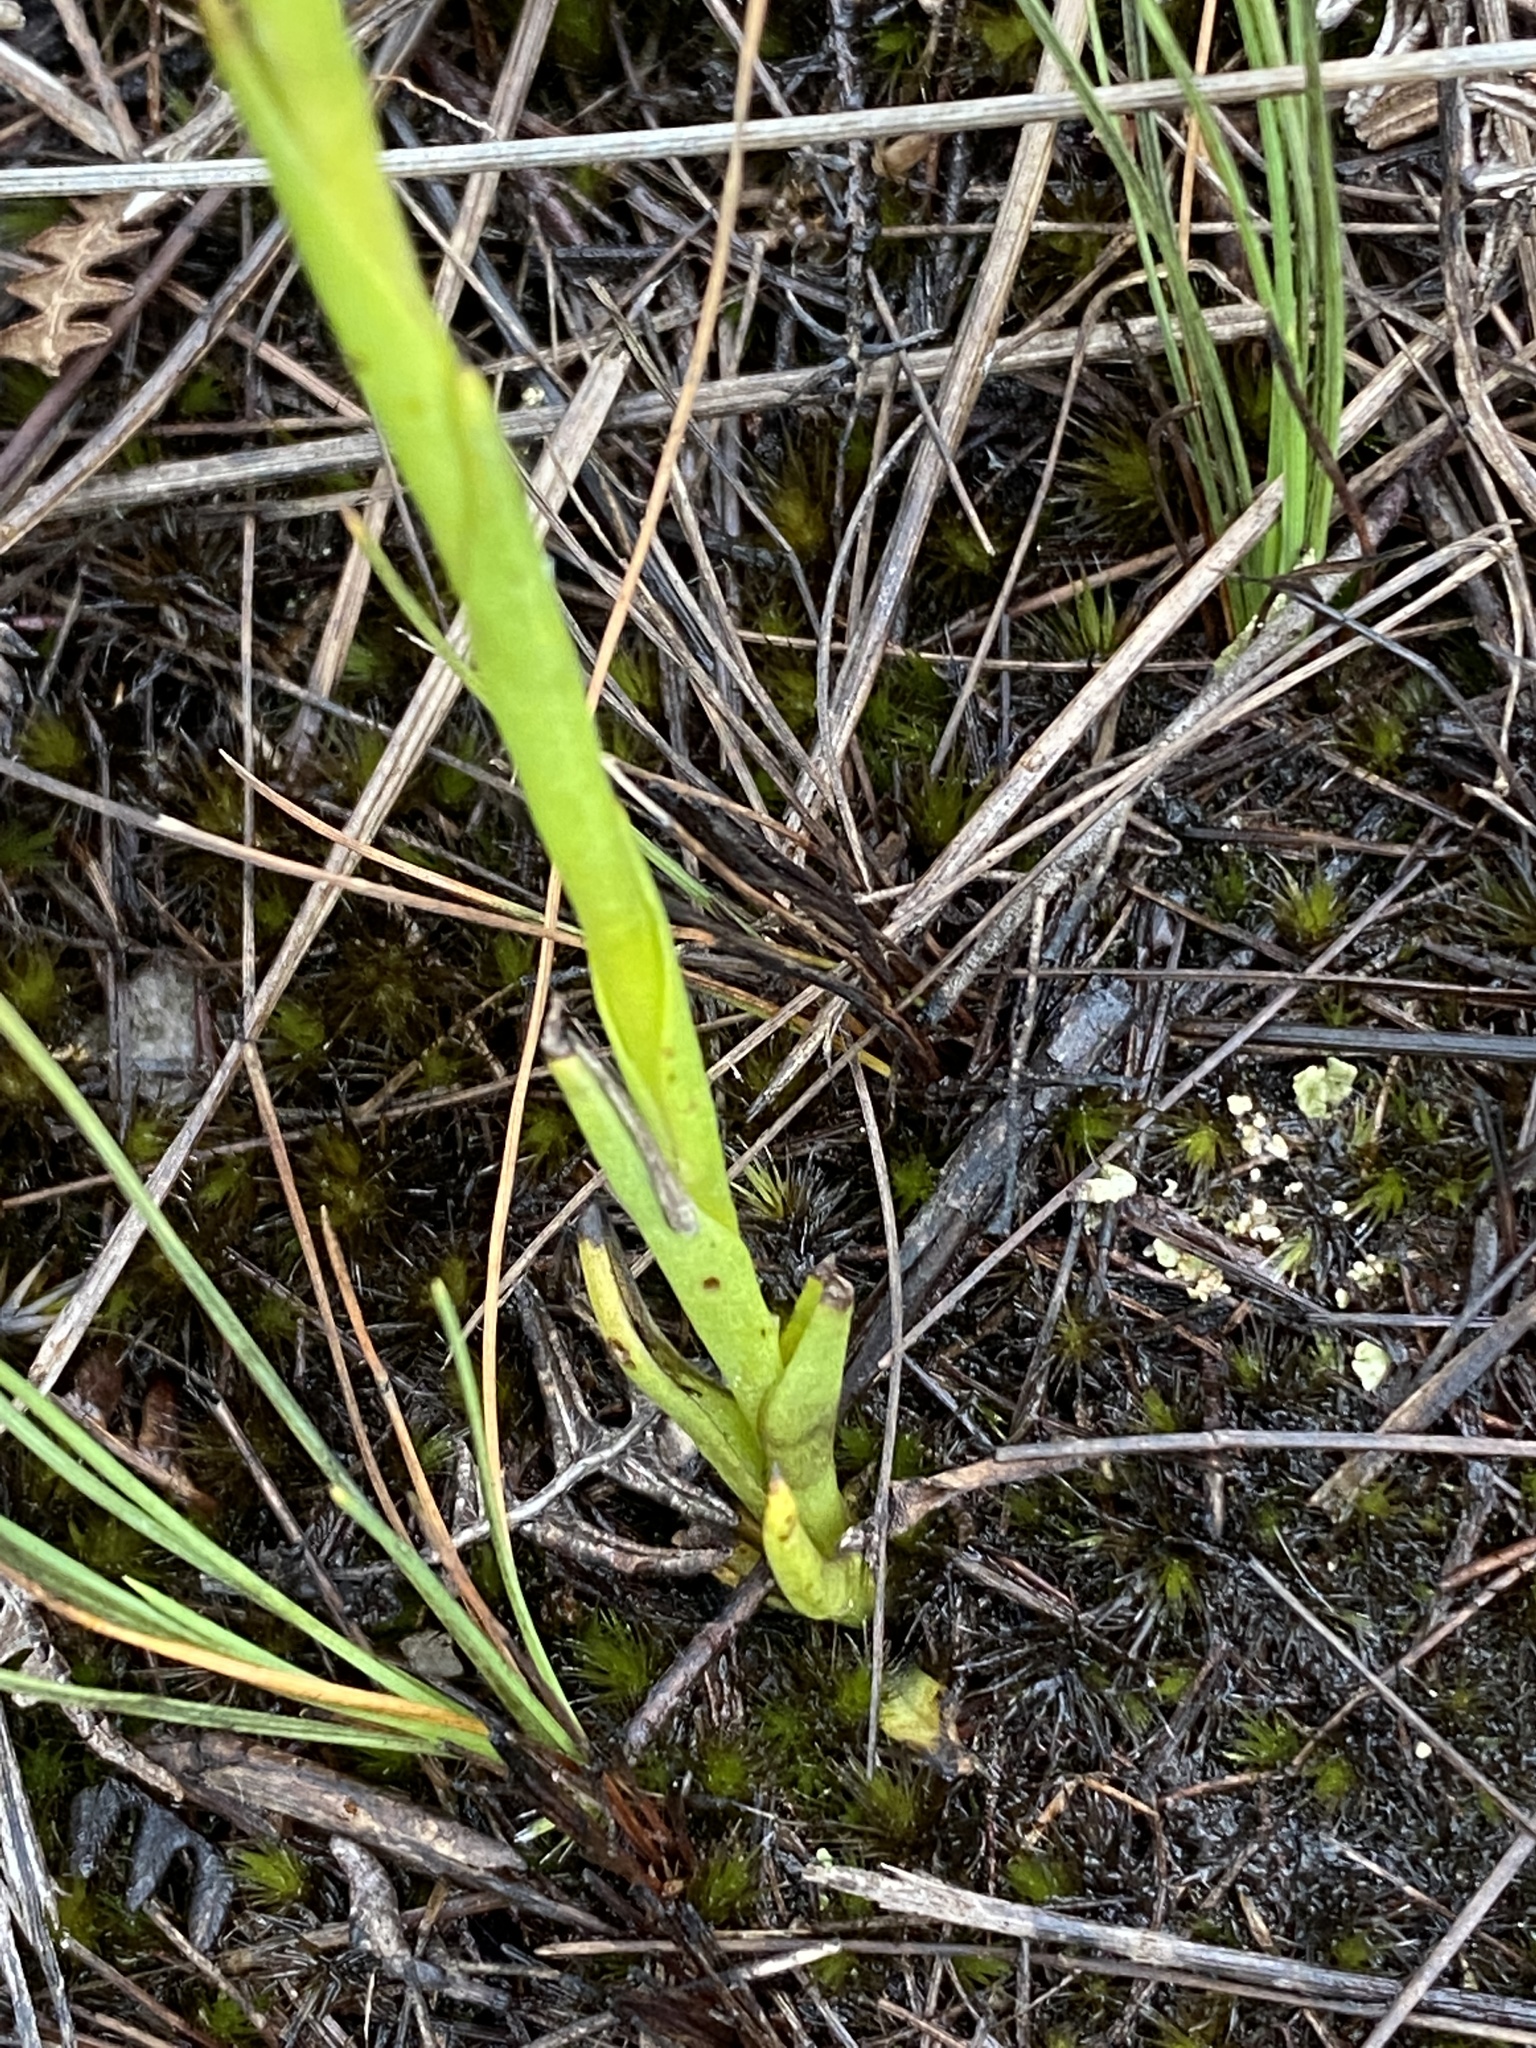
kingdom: Plantae
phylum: Tracheophyta
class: Liliopsida
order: Asparagales
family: Orchidaceae
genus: Disa
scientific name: Disa bivalvata
